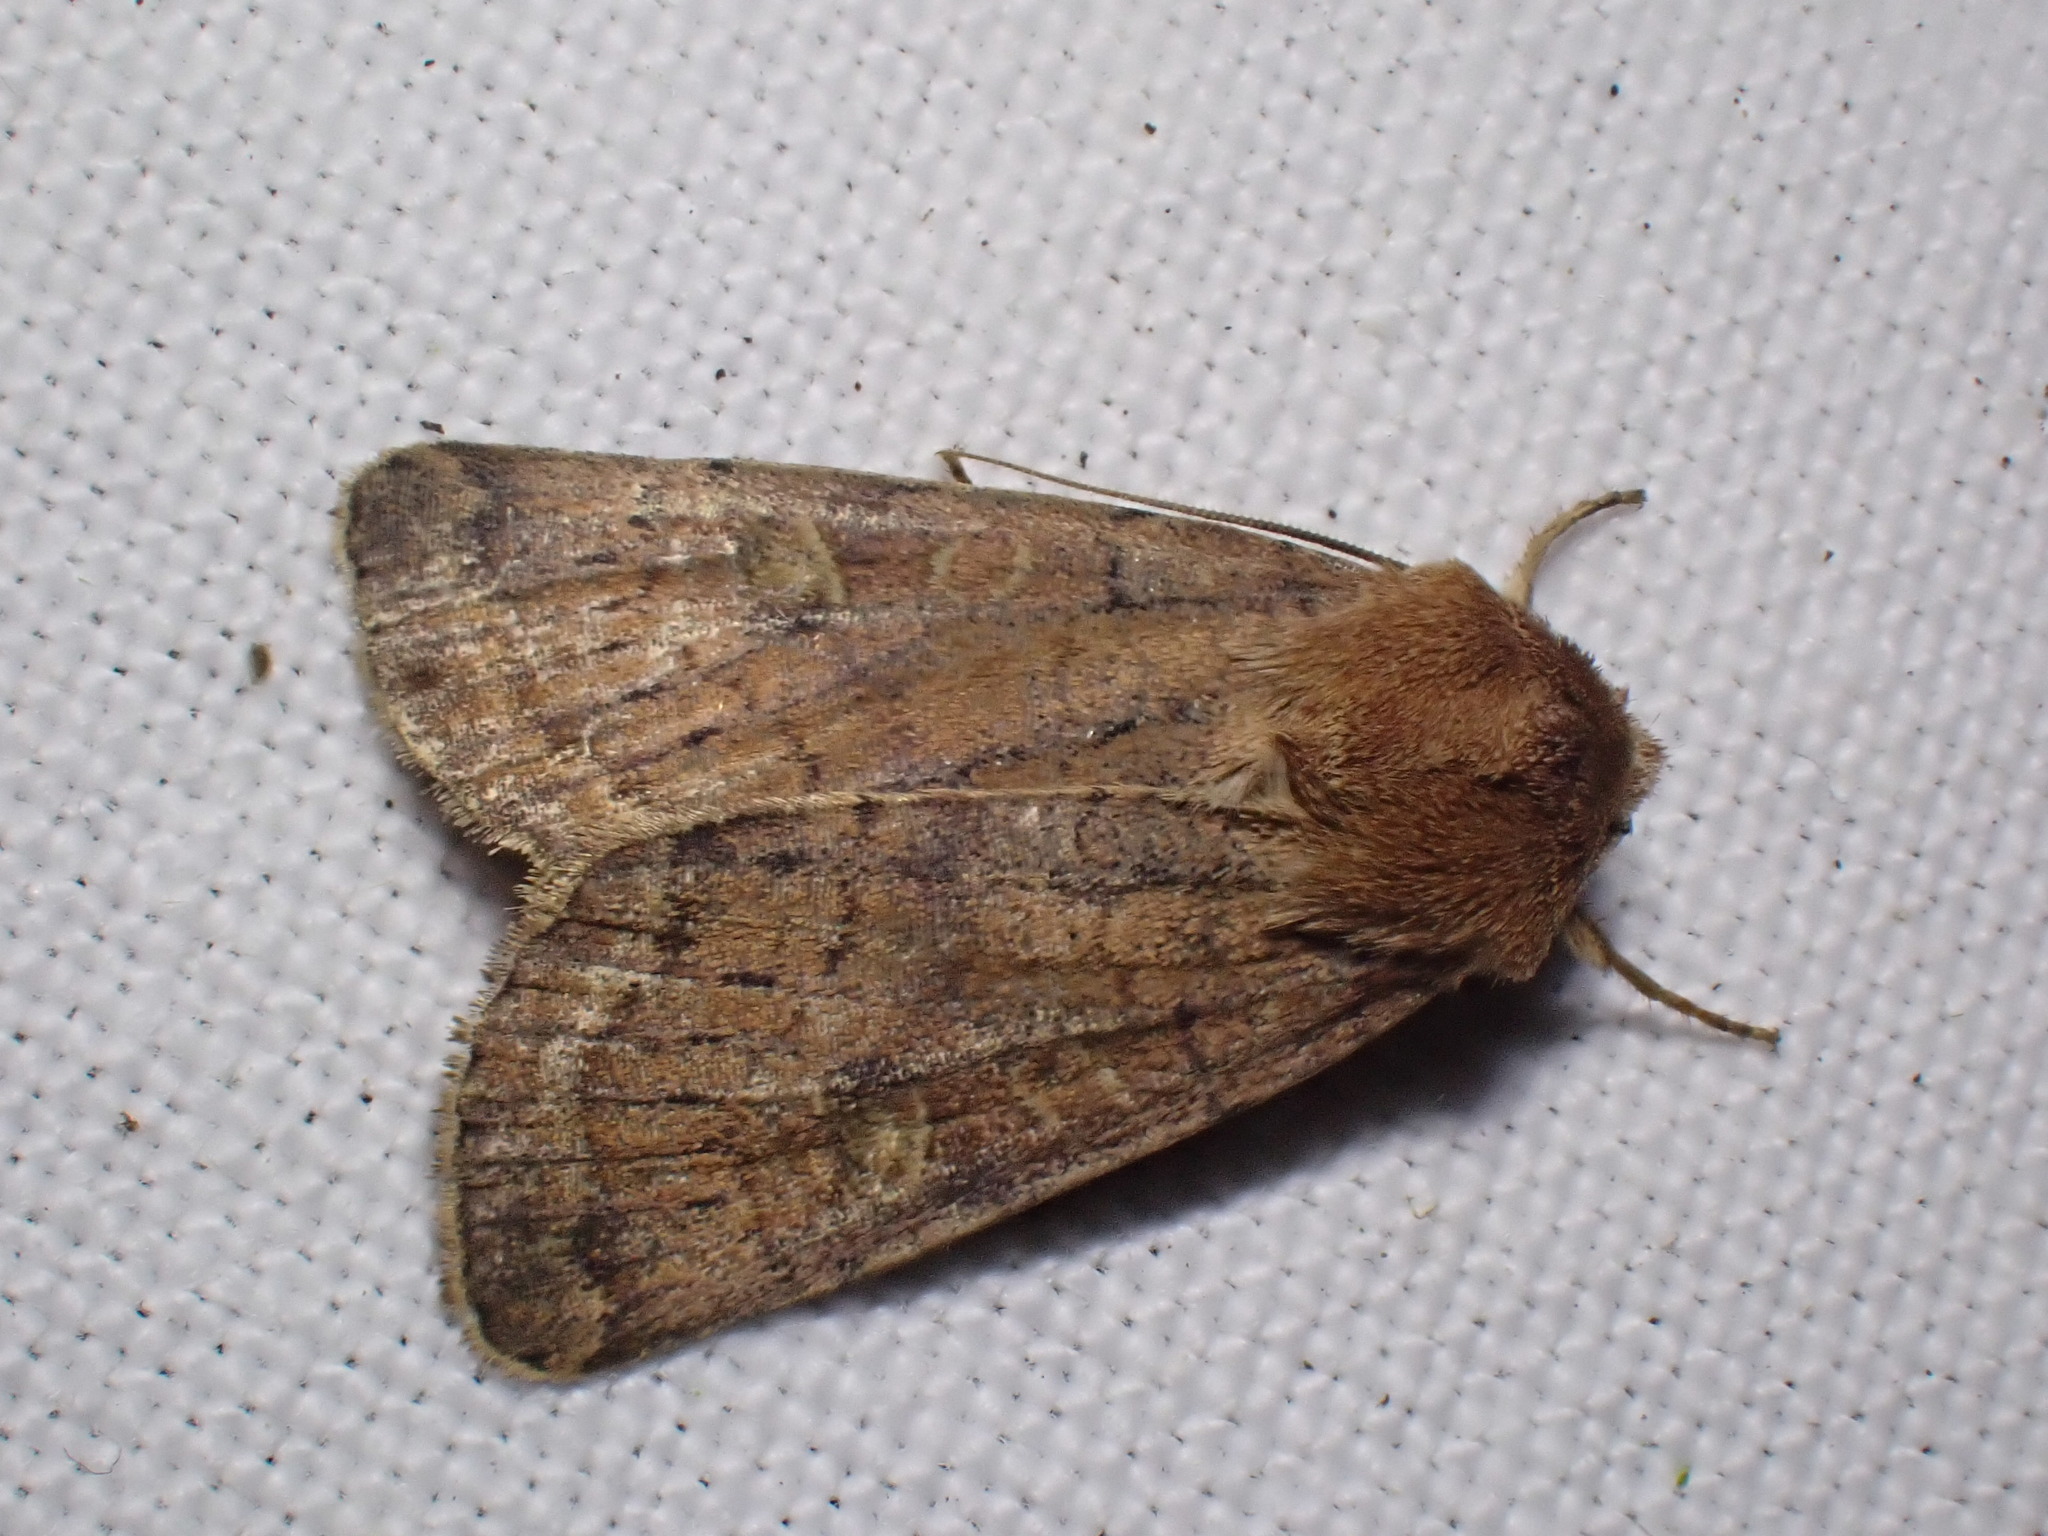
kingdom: Animalia
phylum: Arthropoda
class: Insecta
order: Lepidoptera
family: Noctuidae
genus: Xestia
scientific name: Xestia xanthographa
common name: Square-spot rustic
